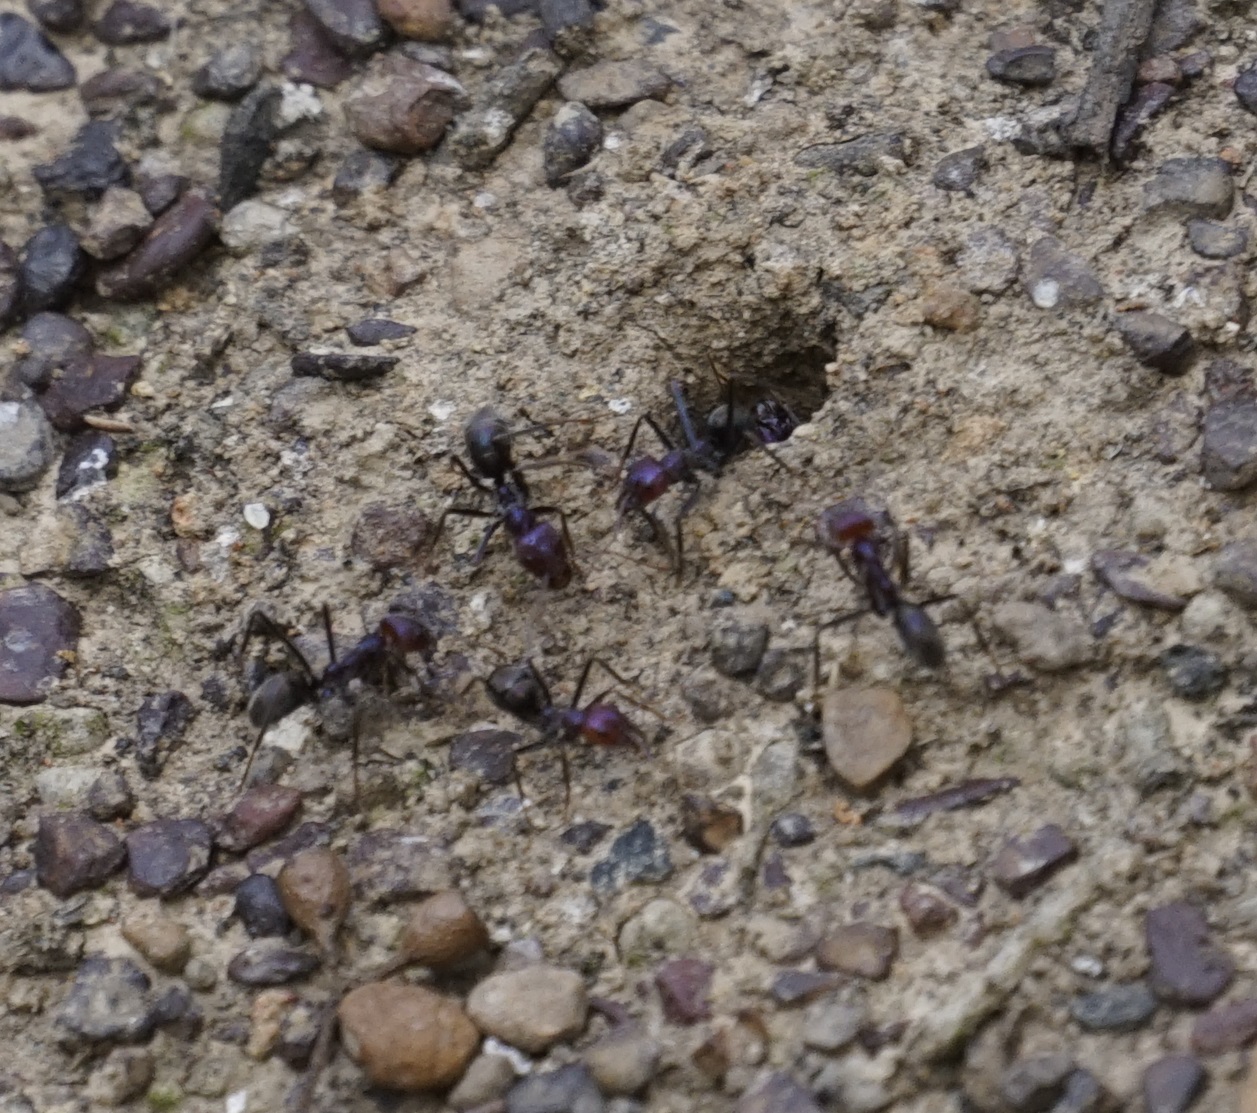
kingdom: Animalia
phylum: Arthropoda
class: Insecta
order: Hymenoptera
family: Formicidae
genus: Iridomyrmex
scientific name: Iridomyrmex purpureus
